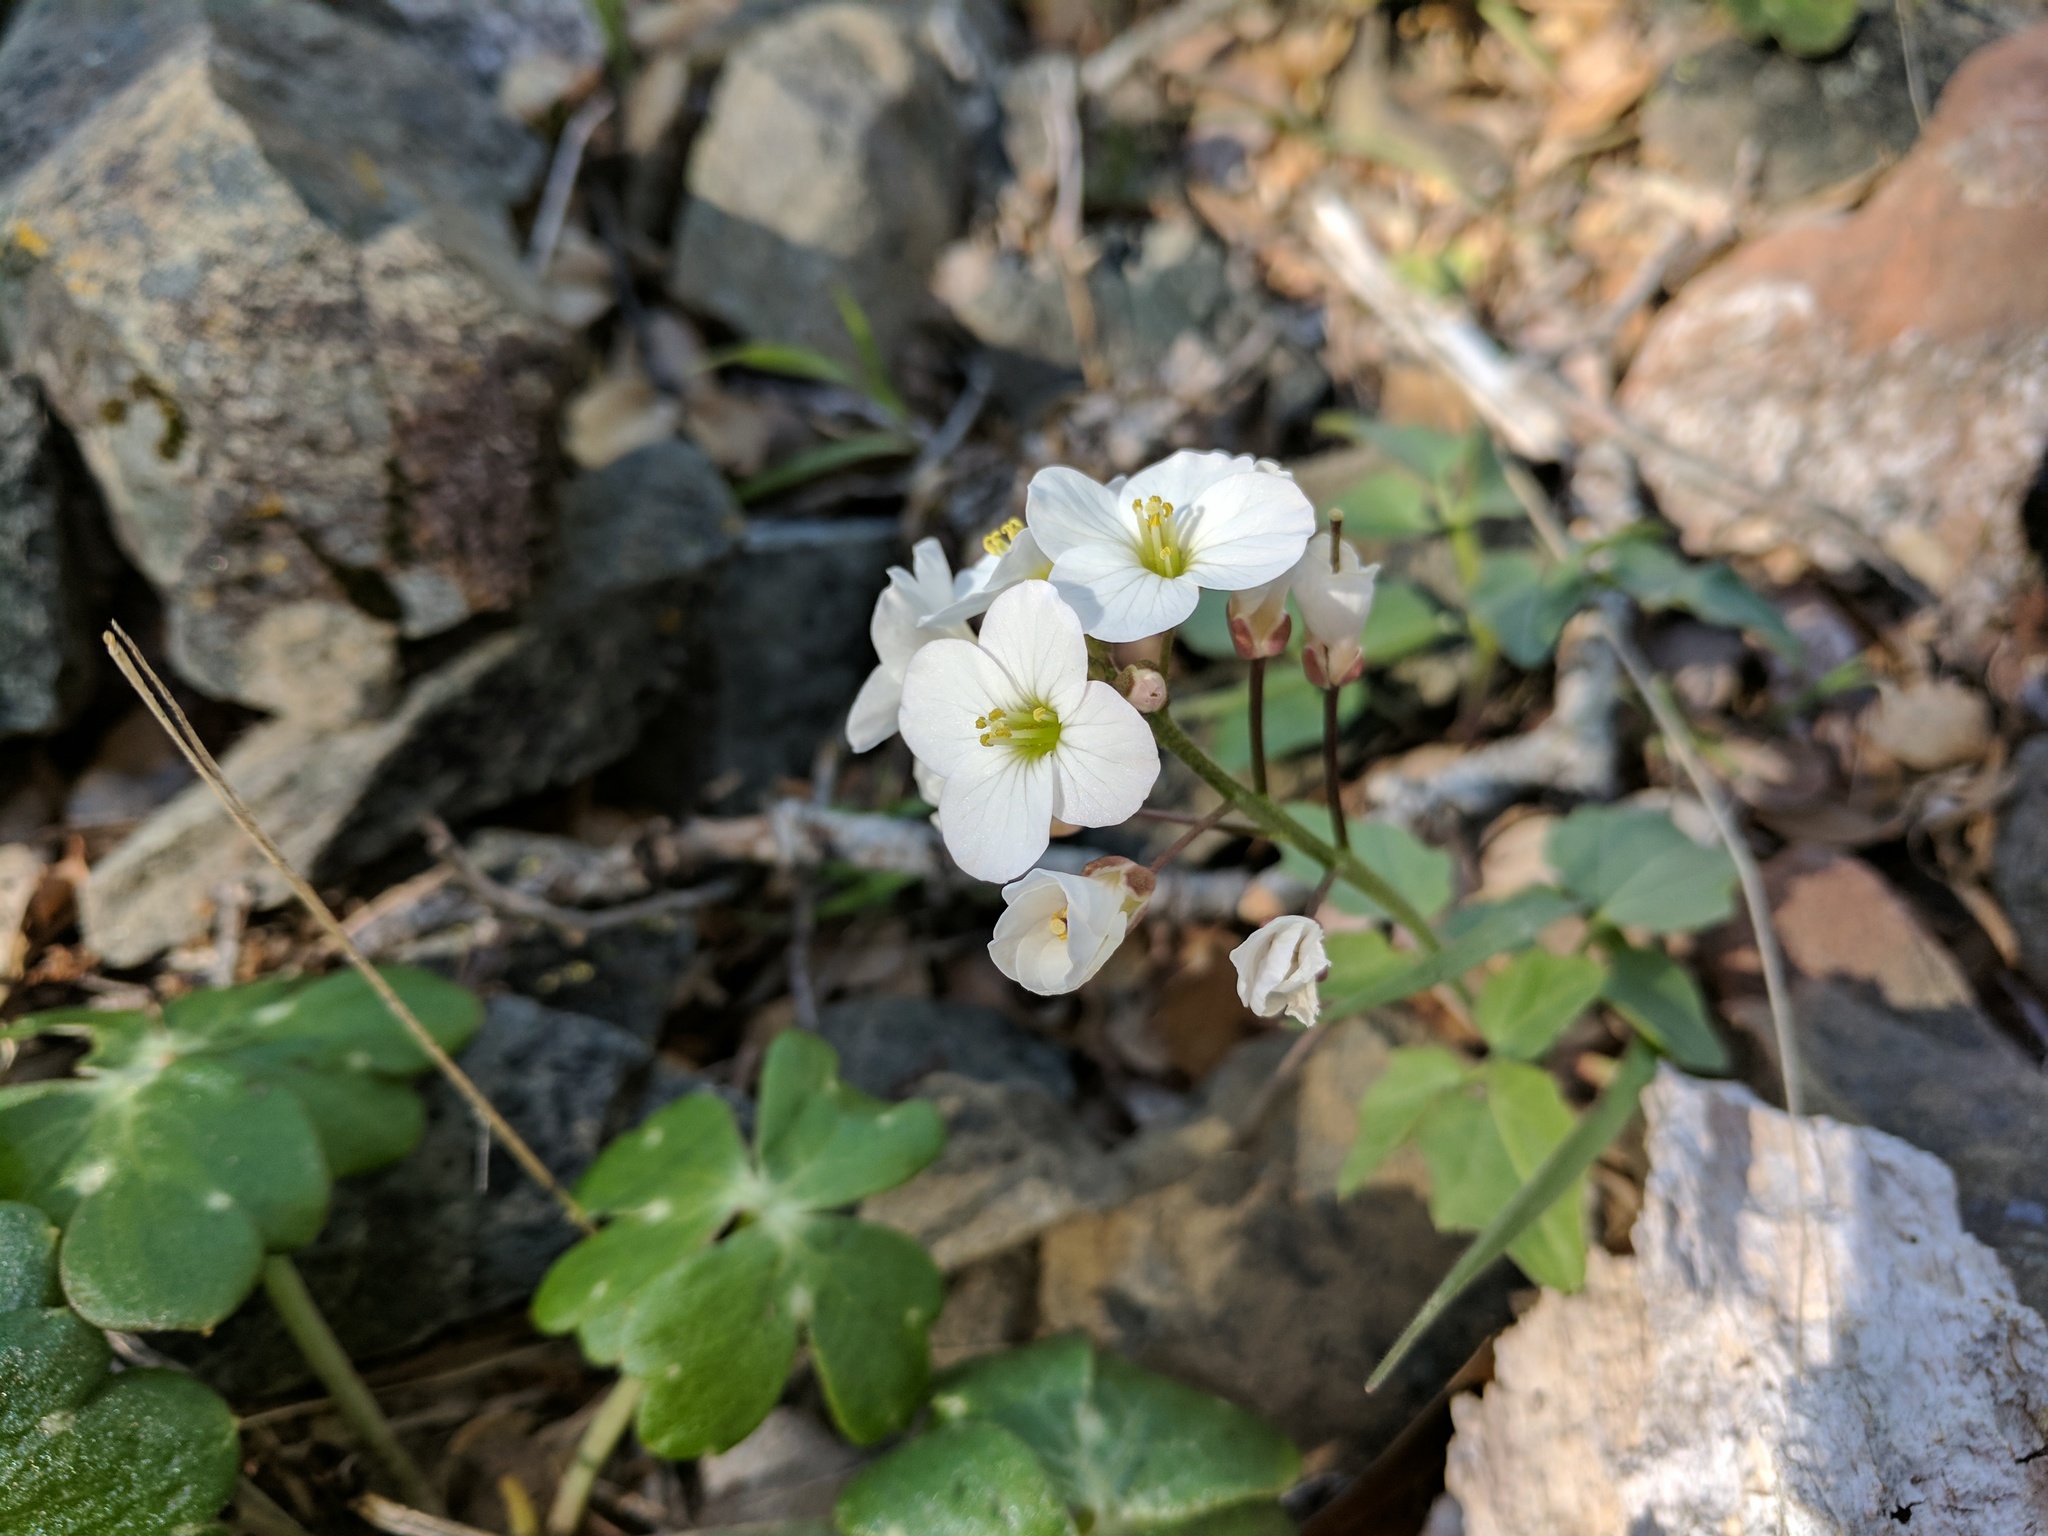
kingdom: Plantae
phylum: Tracheophyta
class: Magnoliopsida
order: Brassicales
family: Brassicaceae
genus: Cardamine
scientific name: Cardamine californica
